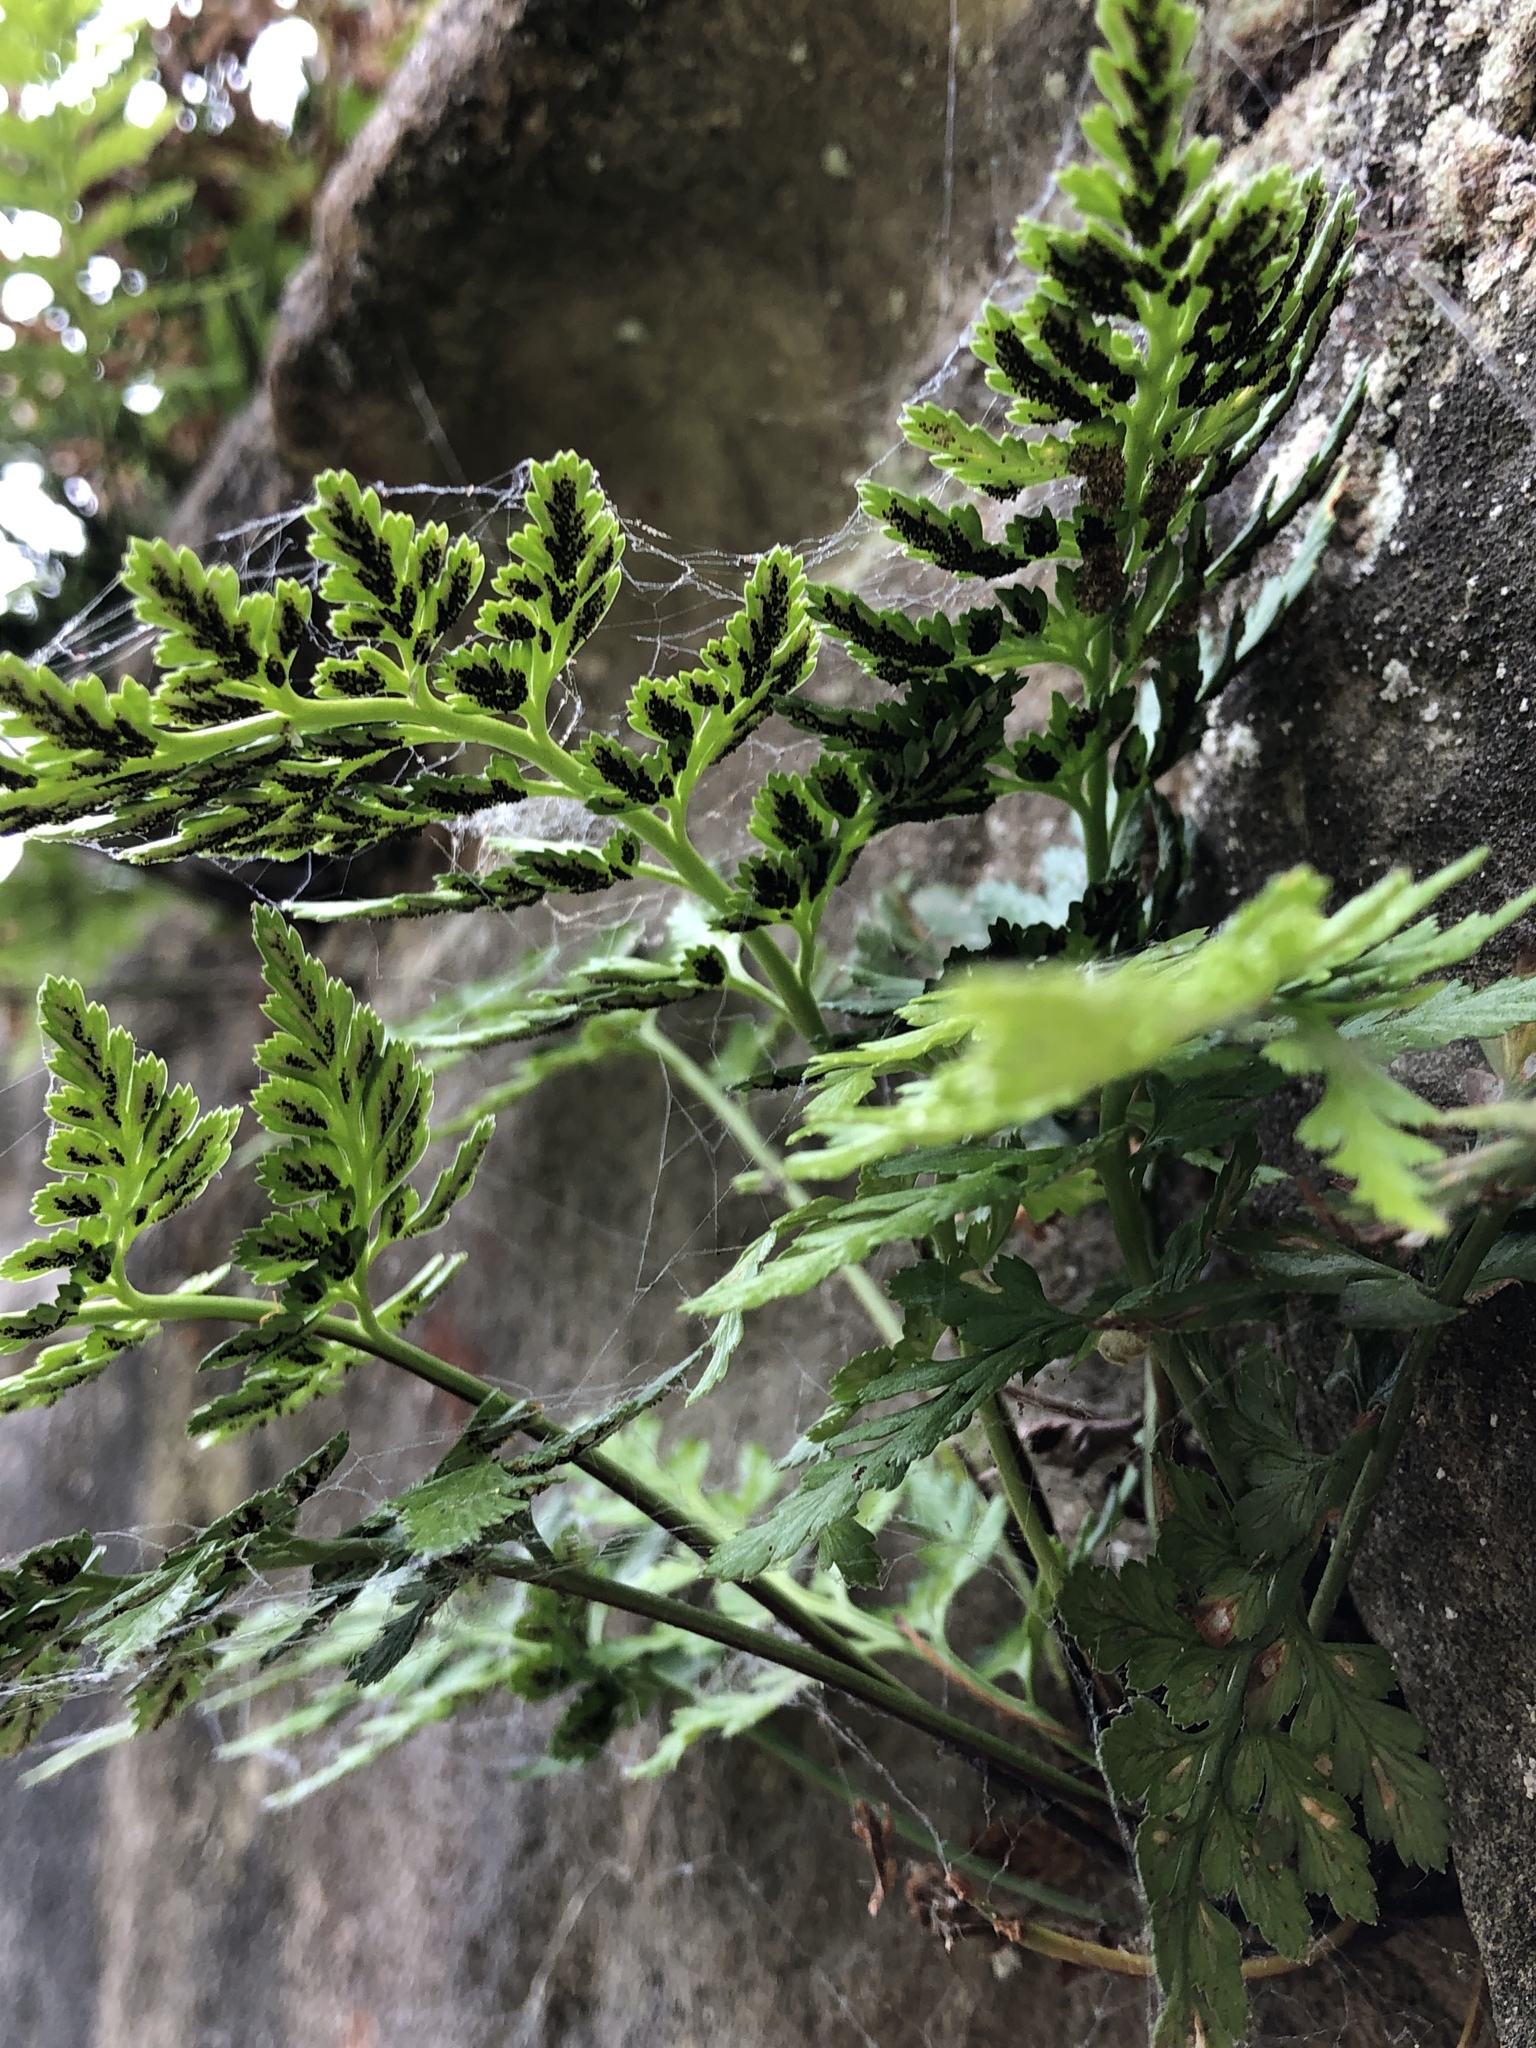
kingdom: Plantae
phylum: Tracheophyta
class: Polypodiopsida
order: Polypodiales
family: Aspleniaceae
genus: Asplenium
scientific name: Asplenium adiantum-nigrum
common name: Black spleenwort
